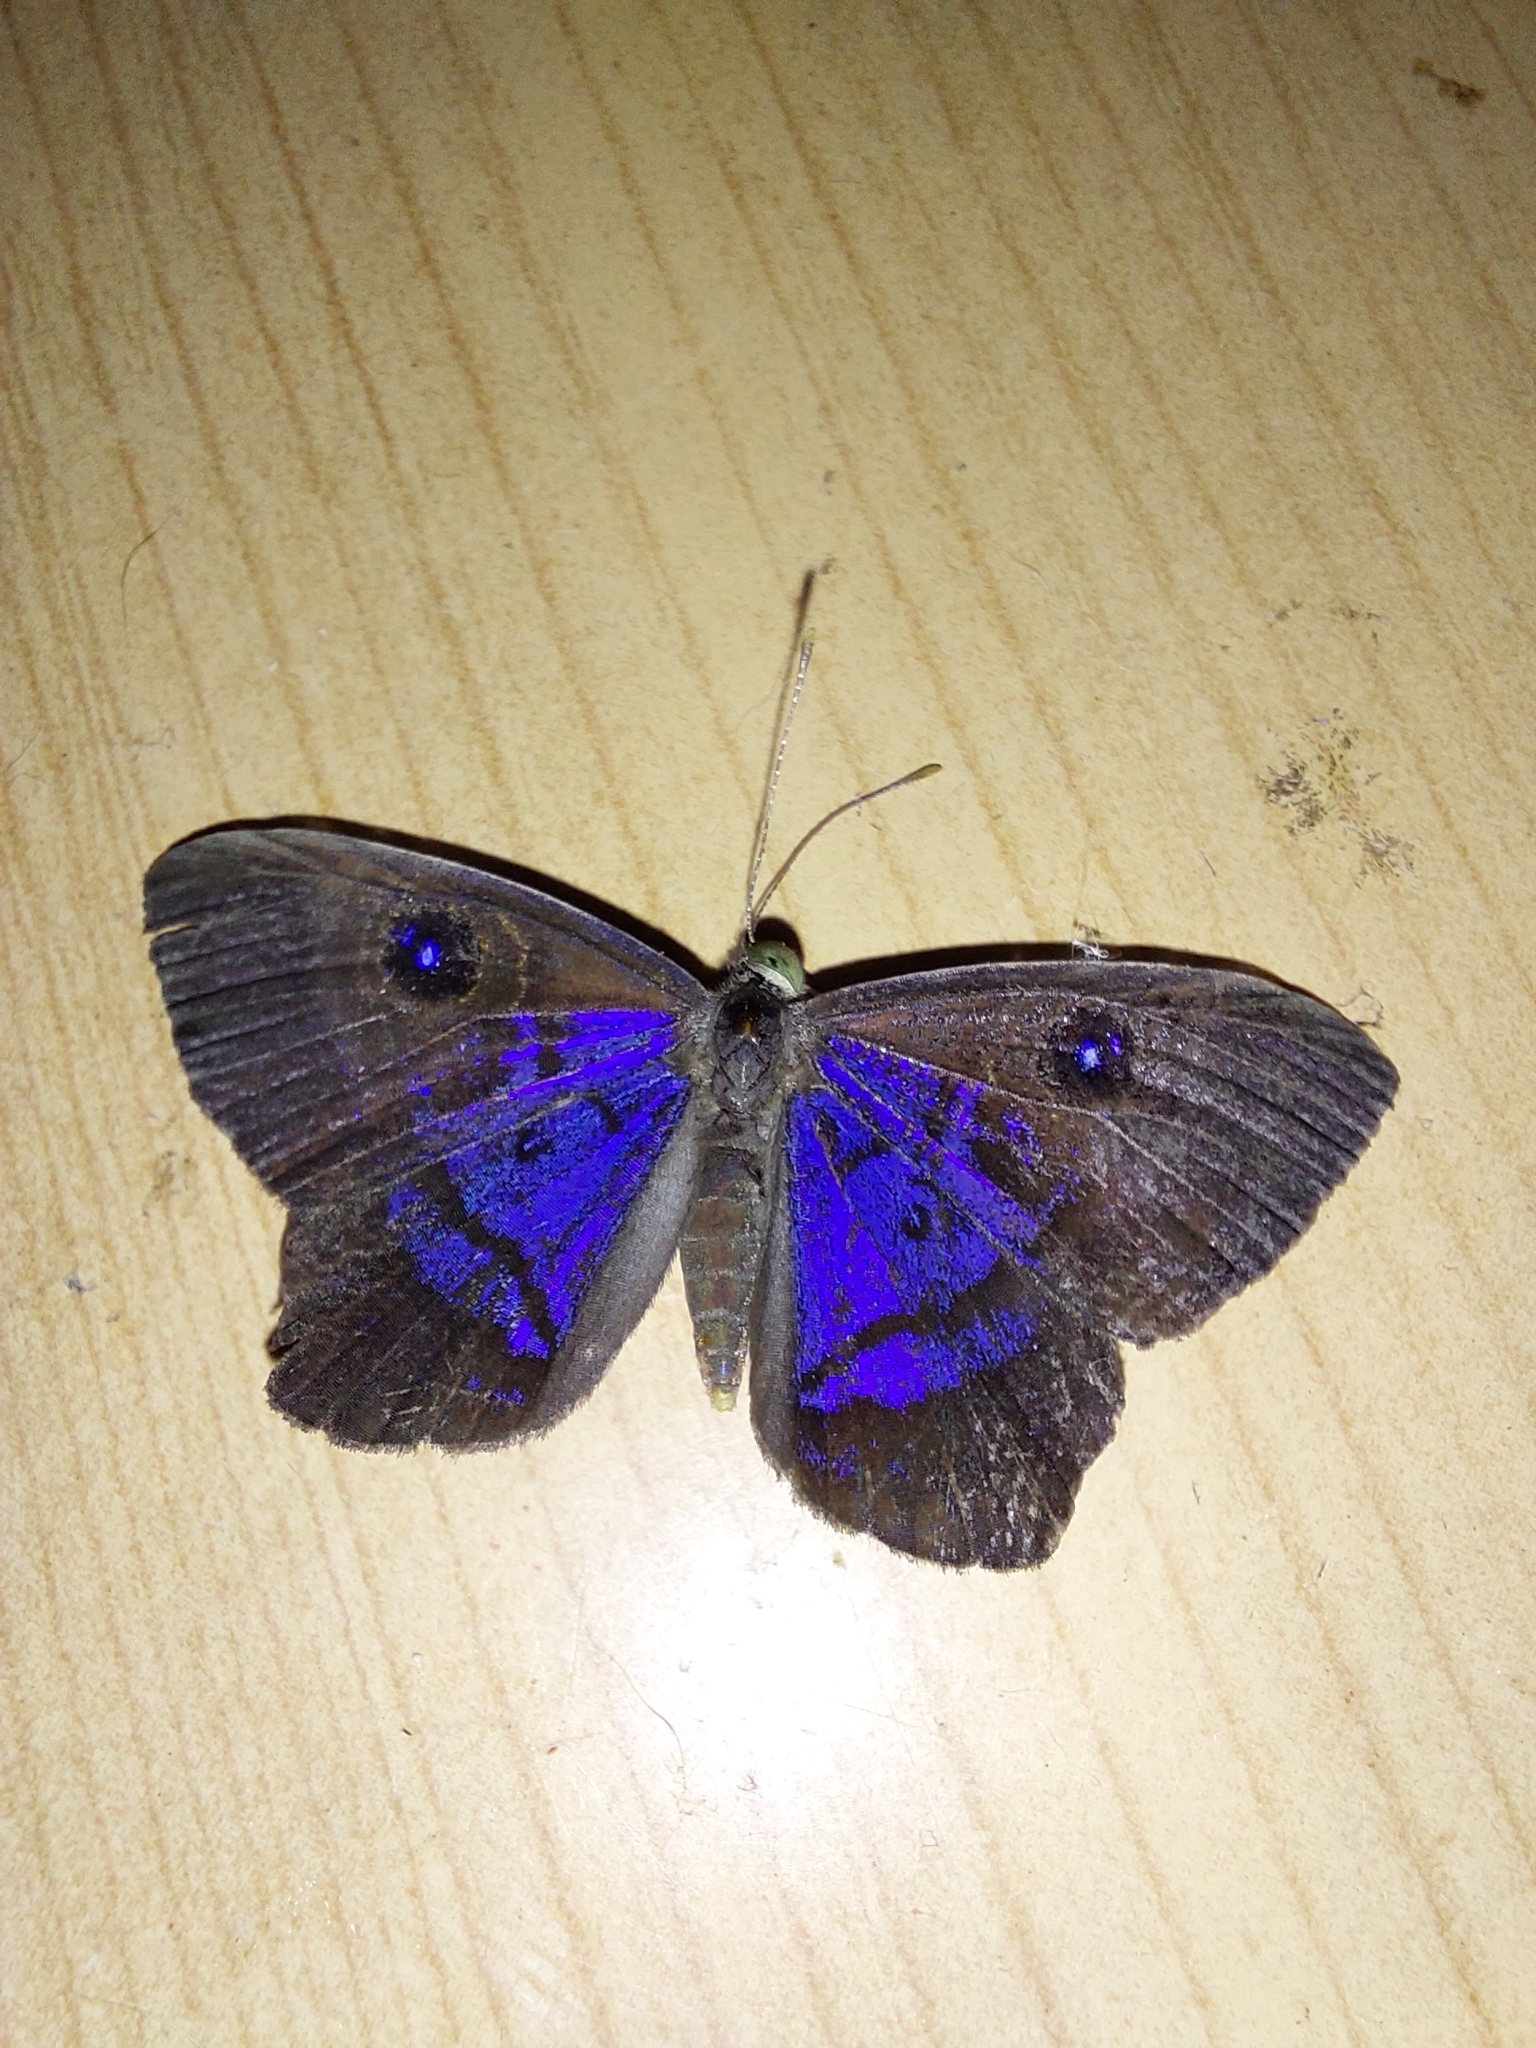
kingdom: Animalia
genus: Mesosemia
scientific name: Mesosemia
